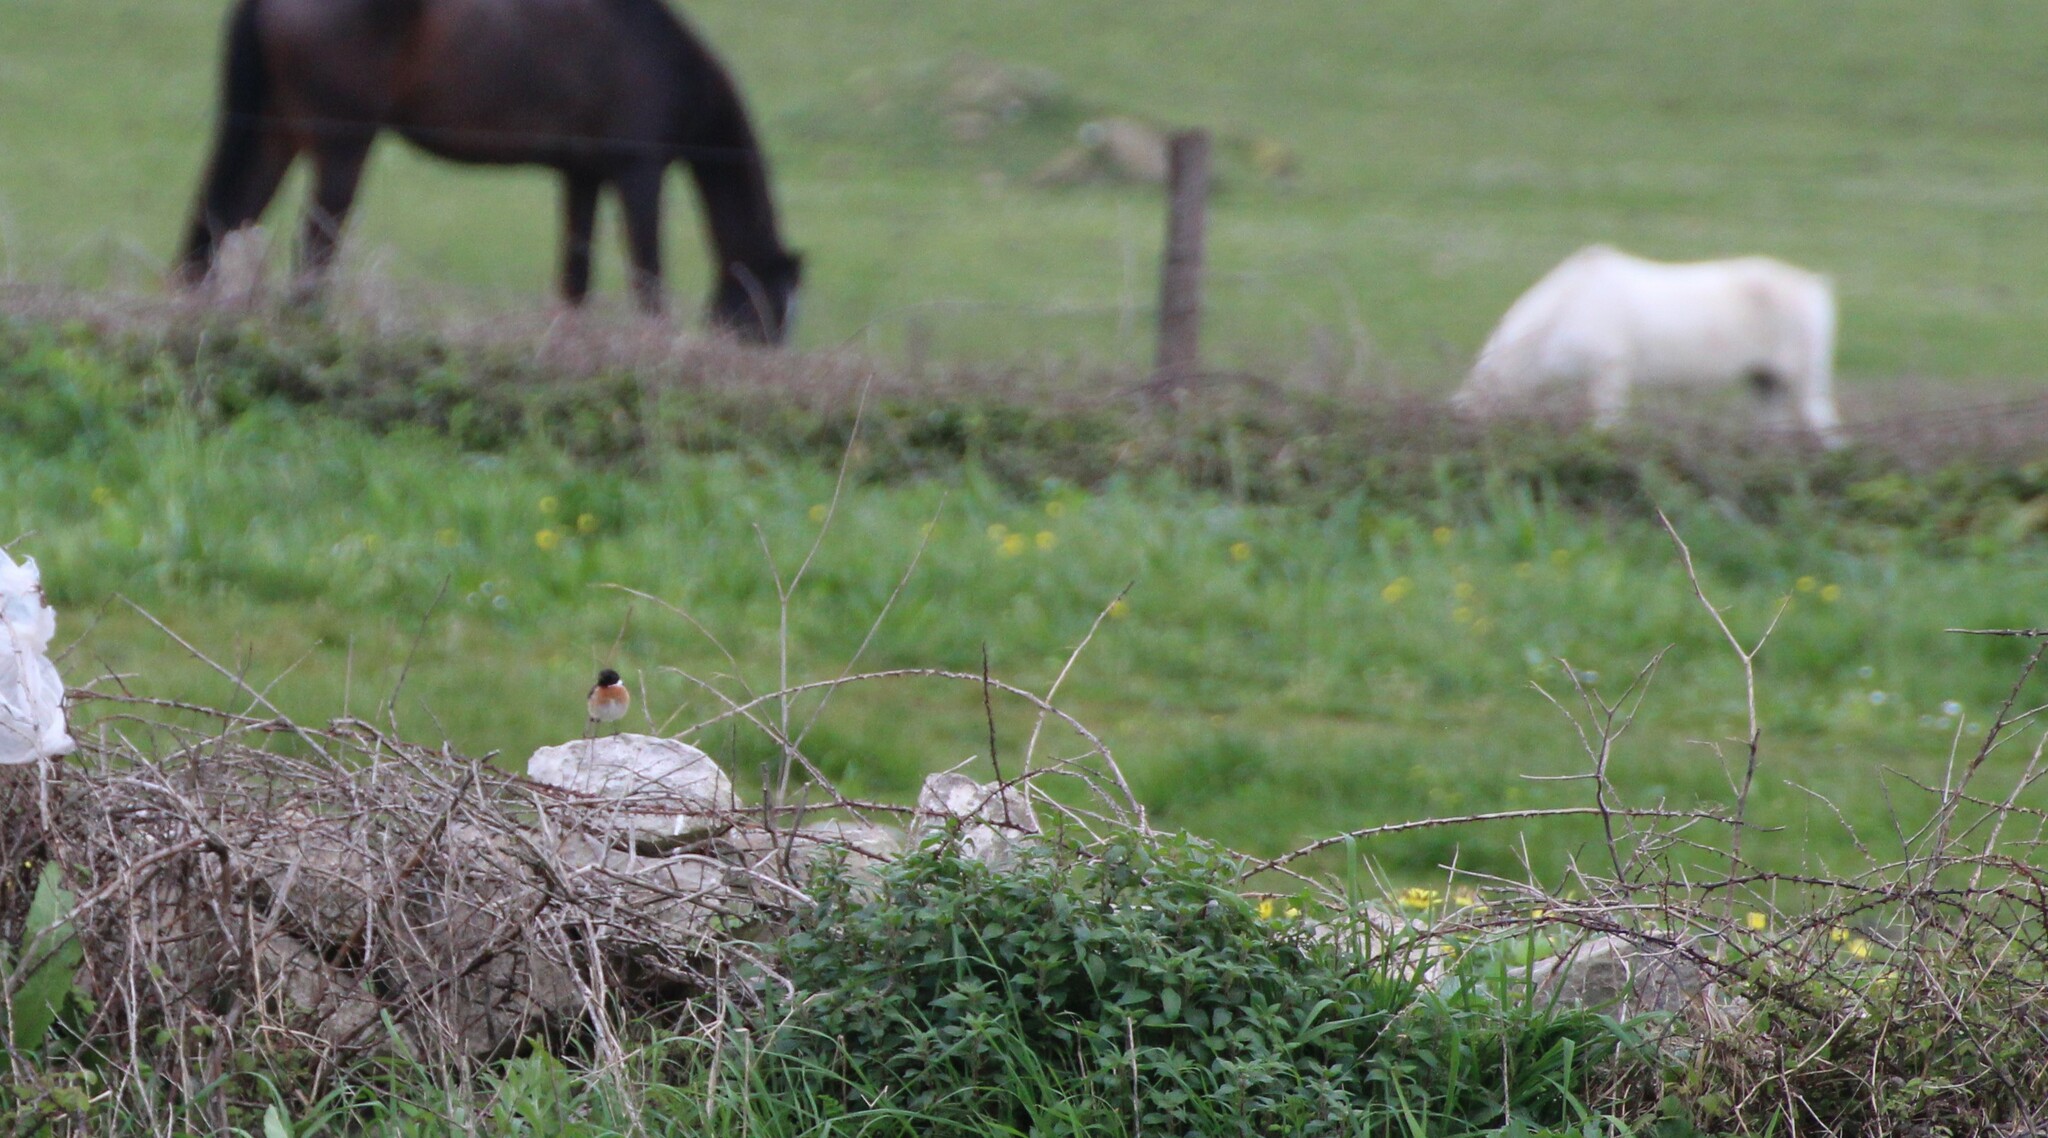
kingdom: Animalia
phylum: Chordata
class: Aves
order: Passeriformes
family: Muscicapidae
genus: Saxicola
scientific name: Saxicola rubicola
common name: European stonechat
